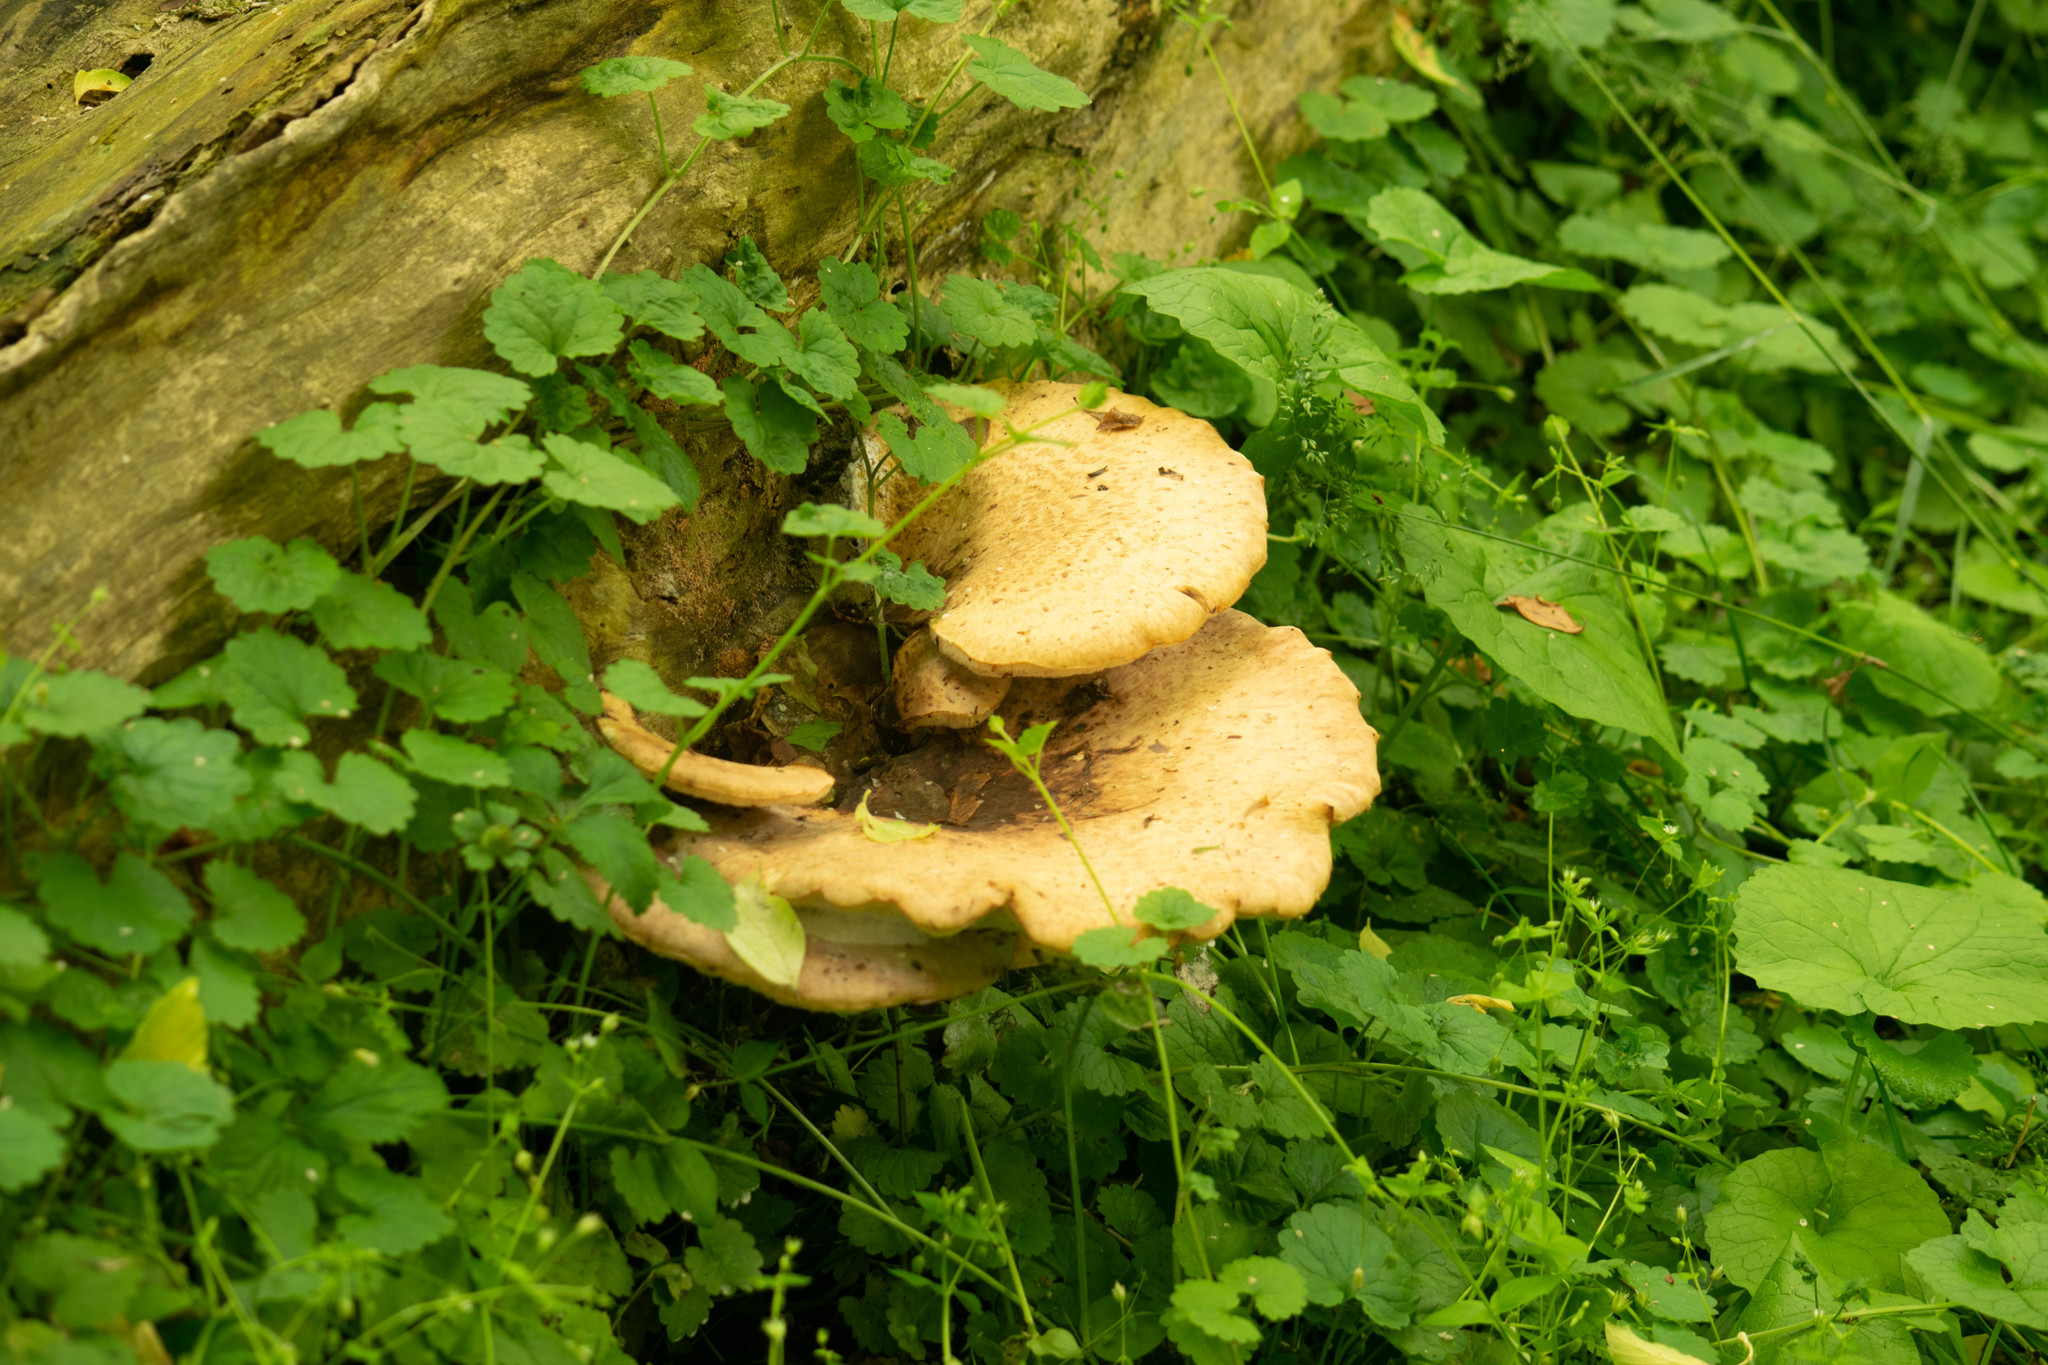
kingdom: Fungi
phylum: Basidiomycota
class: Agaricomycetes
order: Polyporales
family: Polyporaceae
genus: Cerioporus
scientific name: Cerioporus squamosus
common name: Dryad's saddle
